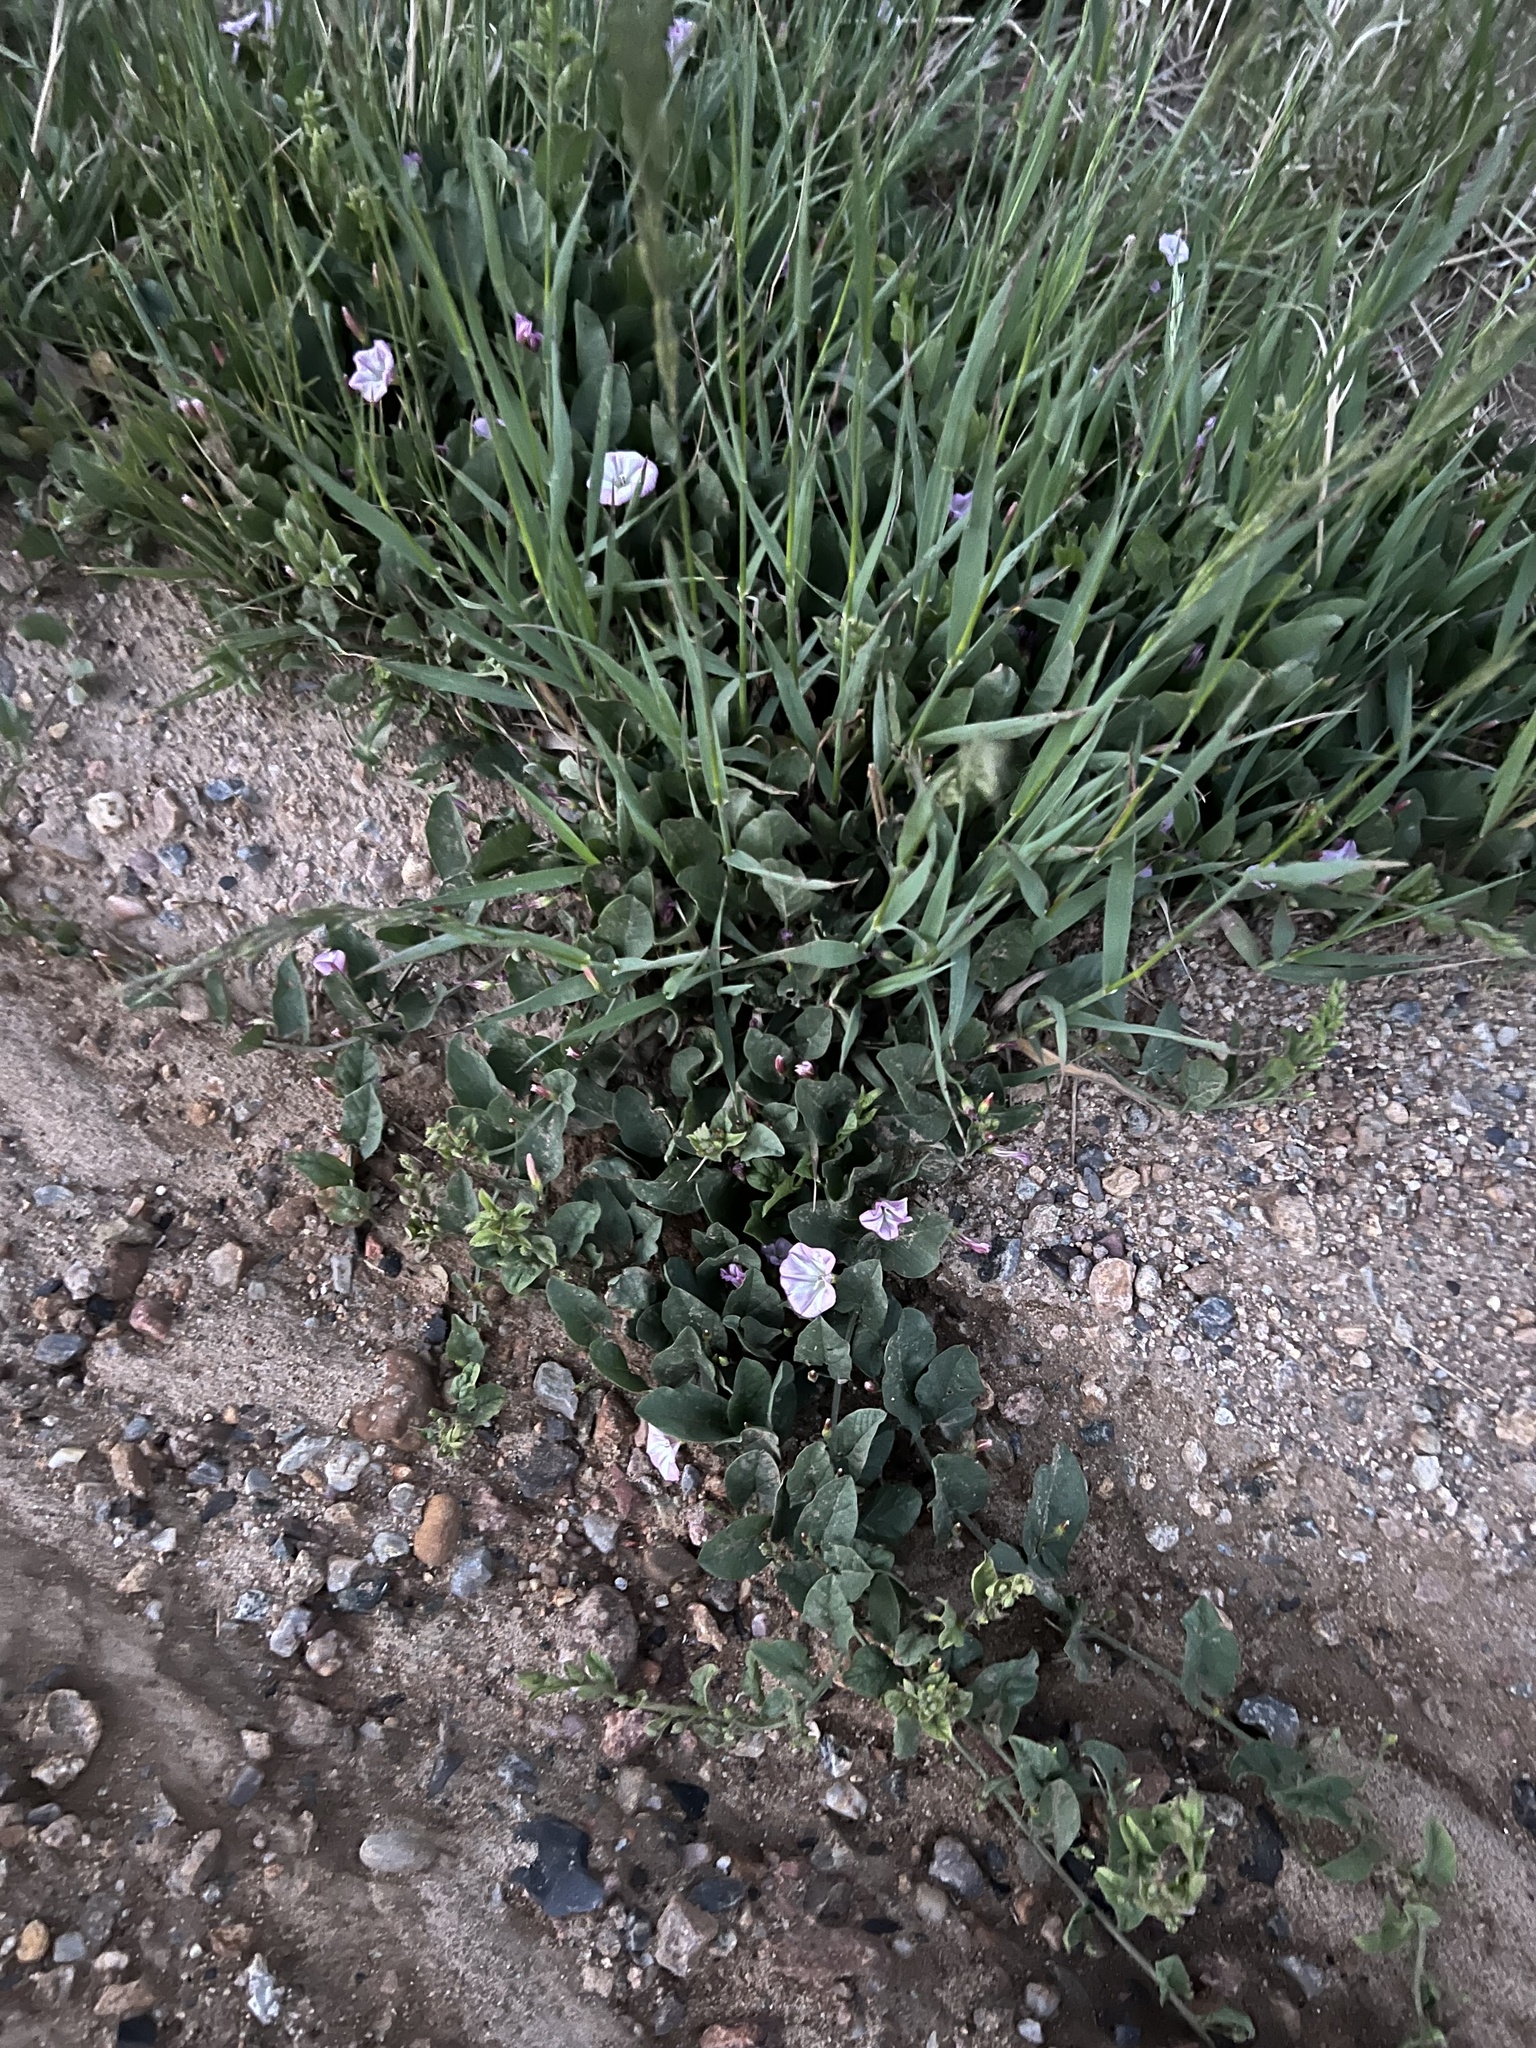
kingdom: Plantae
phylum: Tracheophyta
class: Magnoliopsida
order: Solanales
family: Convolvulaceae
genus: Convolvulus
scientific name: Convolvulus arvensis
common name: Field bindweed
